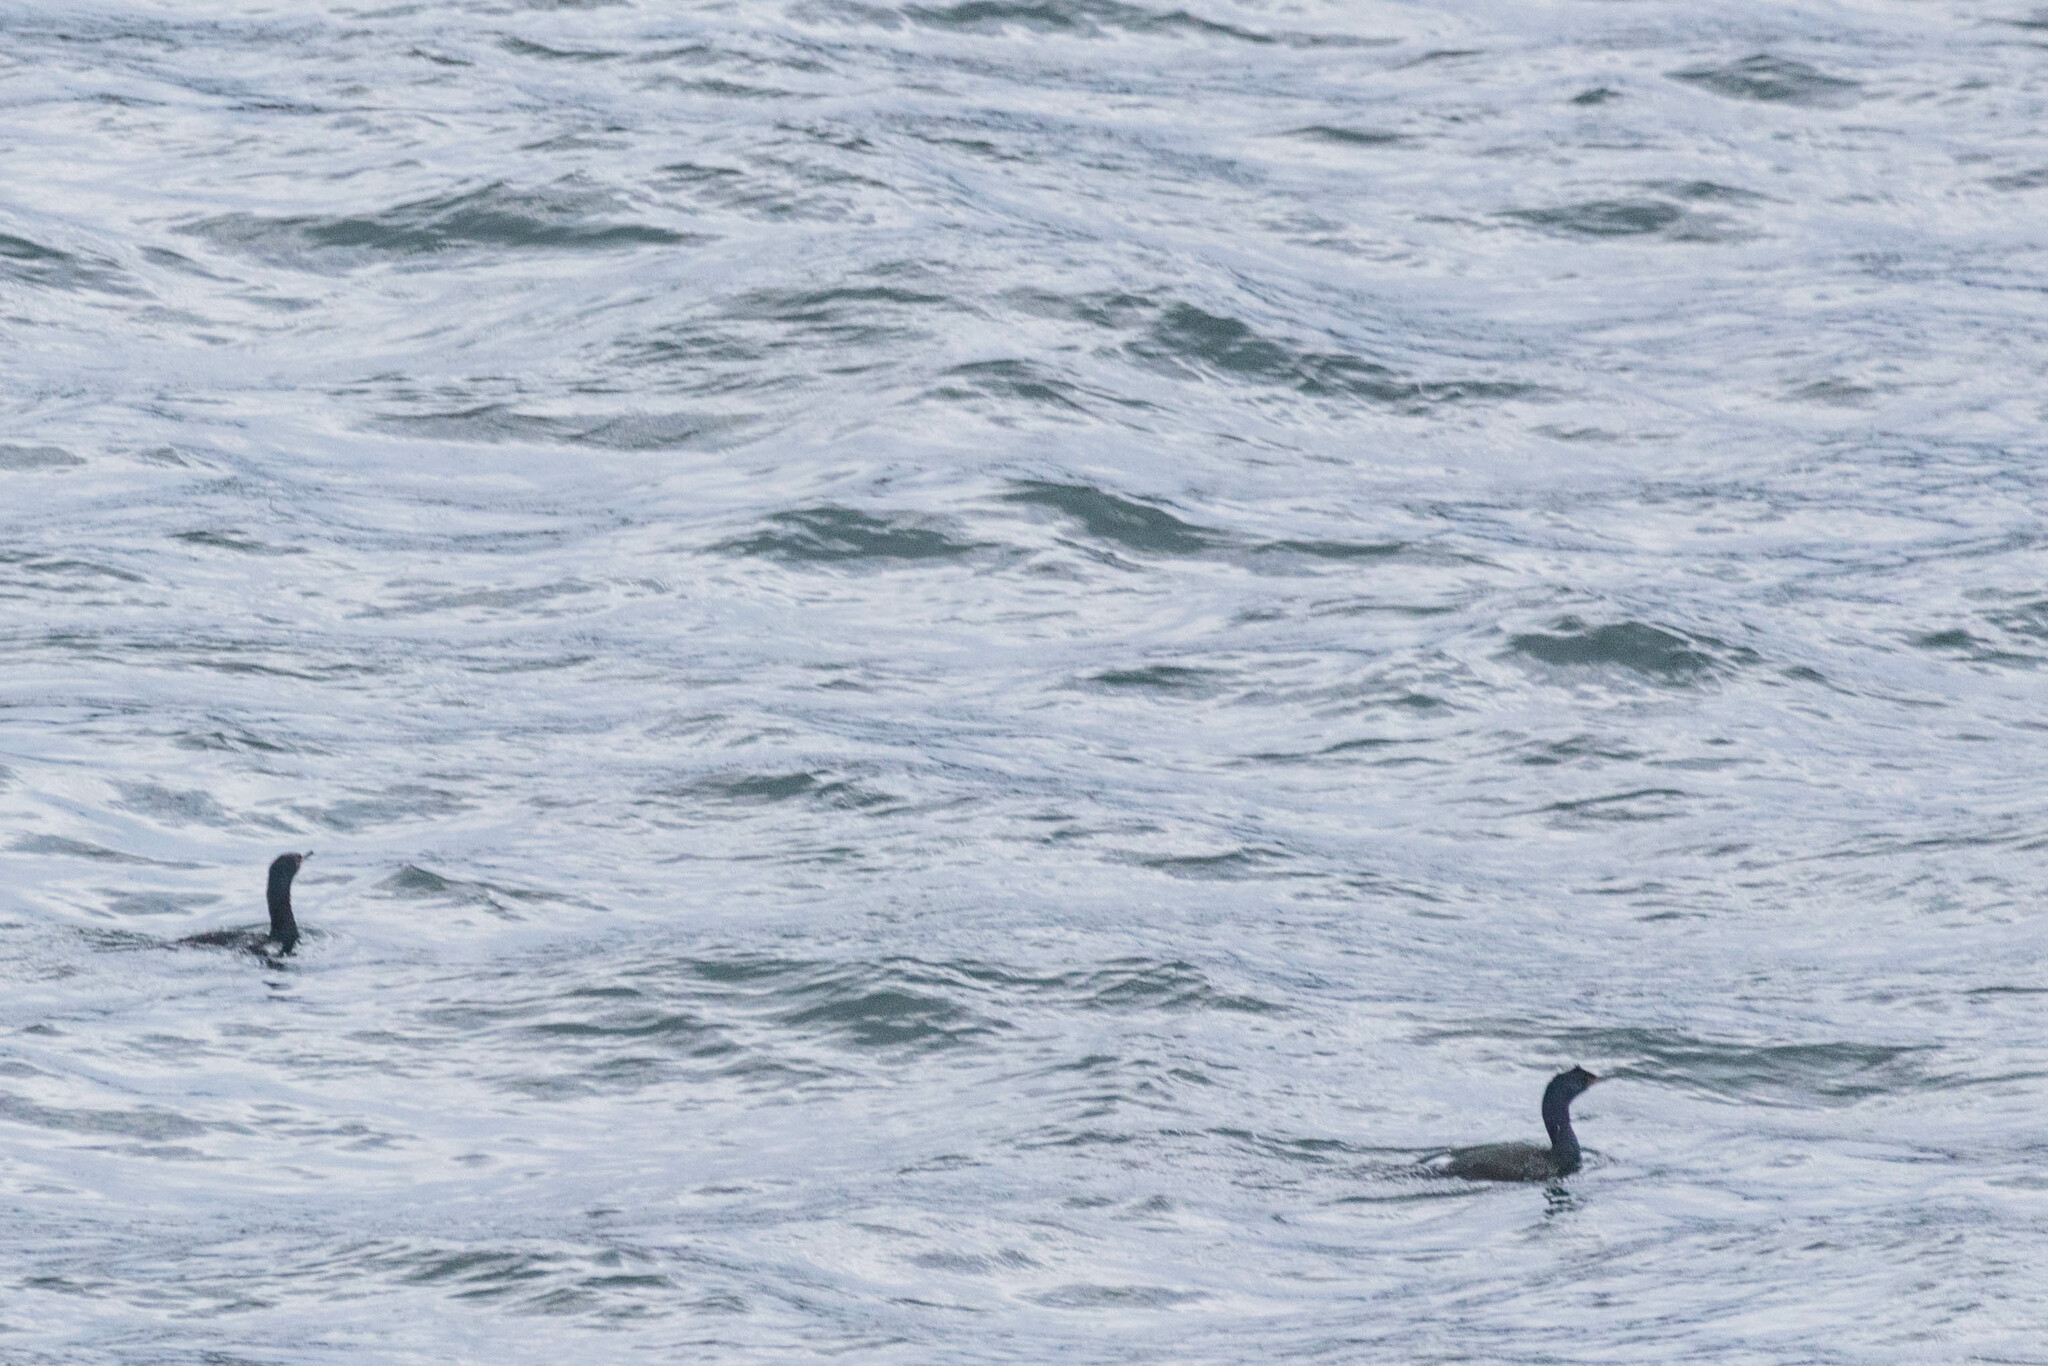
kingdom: Animalia
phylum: Chordata
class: Aves
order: Suliformes
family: Phalacrocoracidae
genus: Phalacrocorax
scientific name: Phalacrocorax pelagicus
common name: Pelagic cormorant
